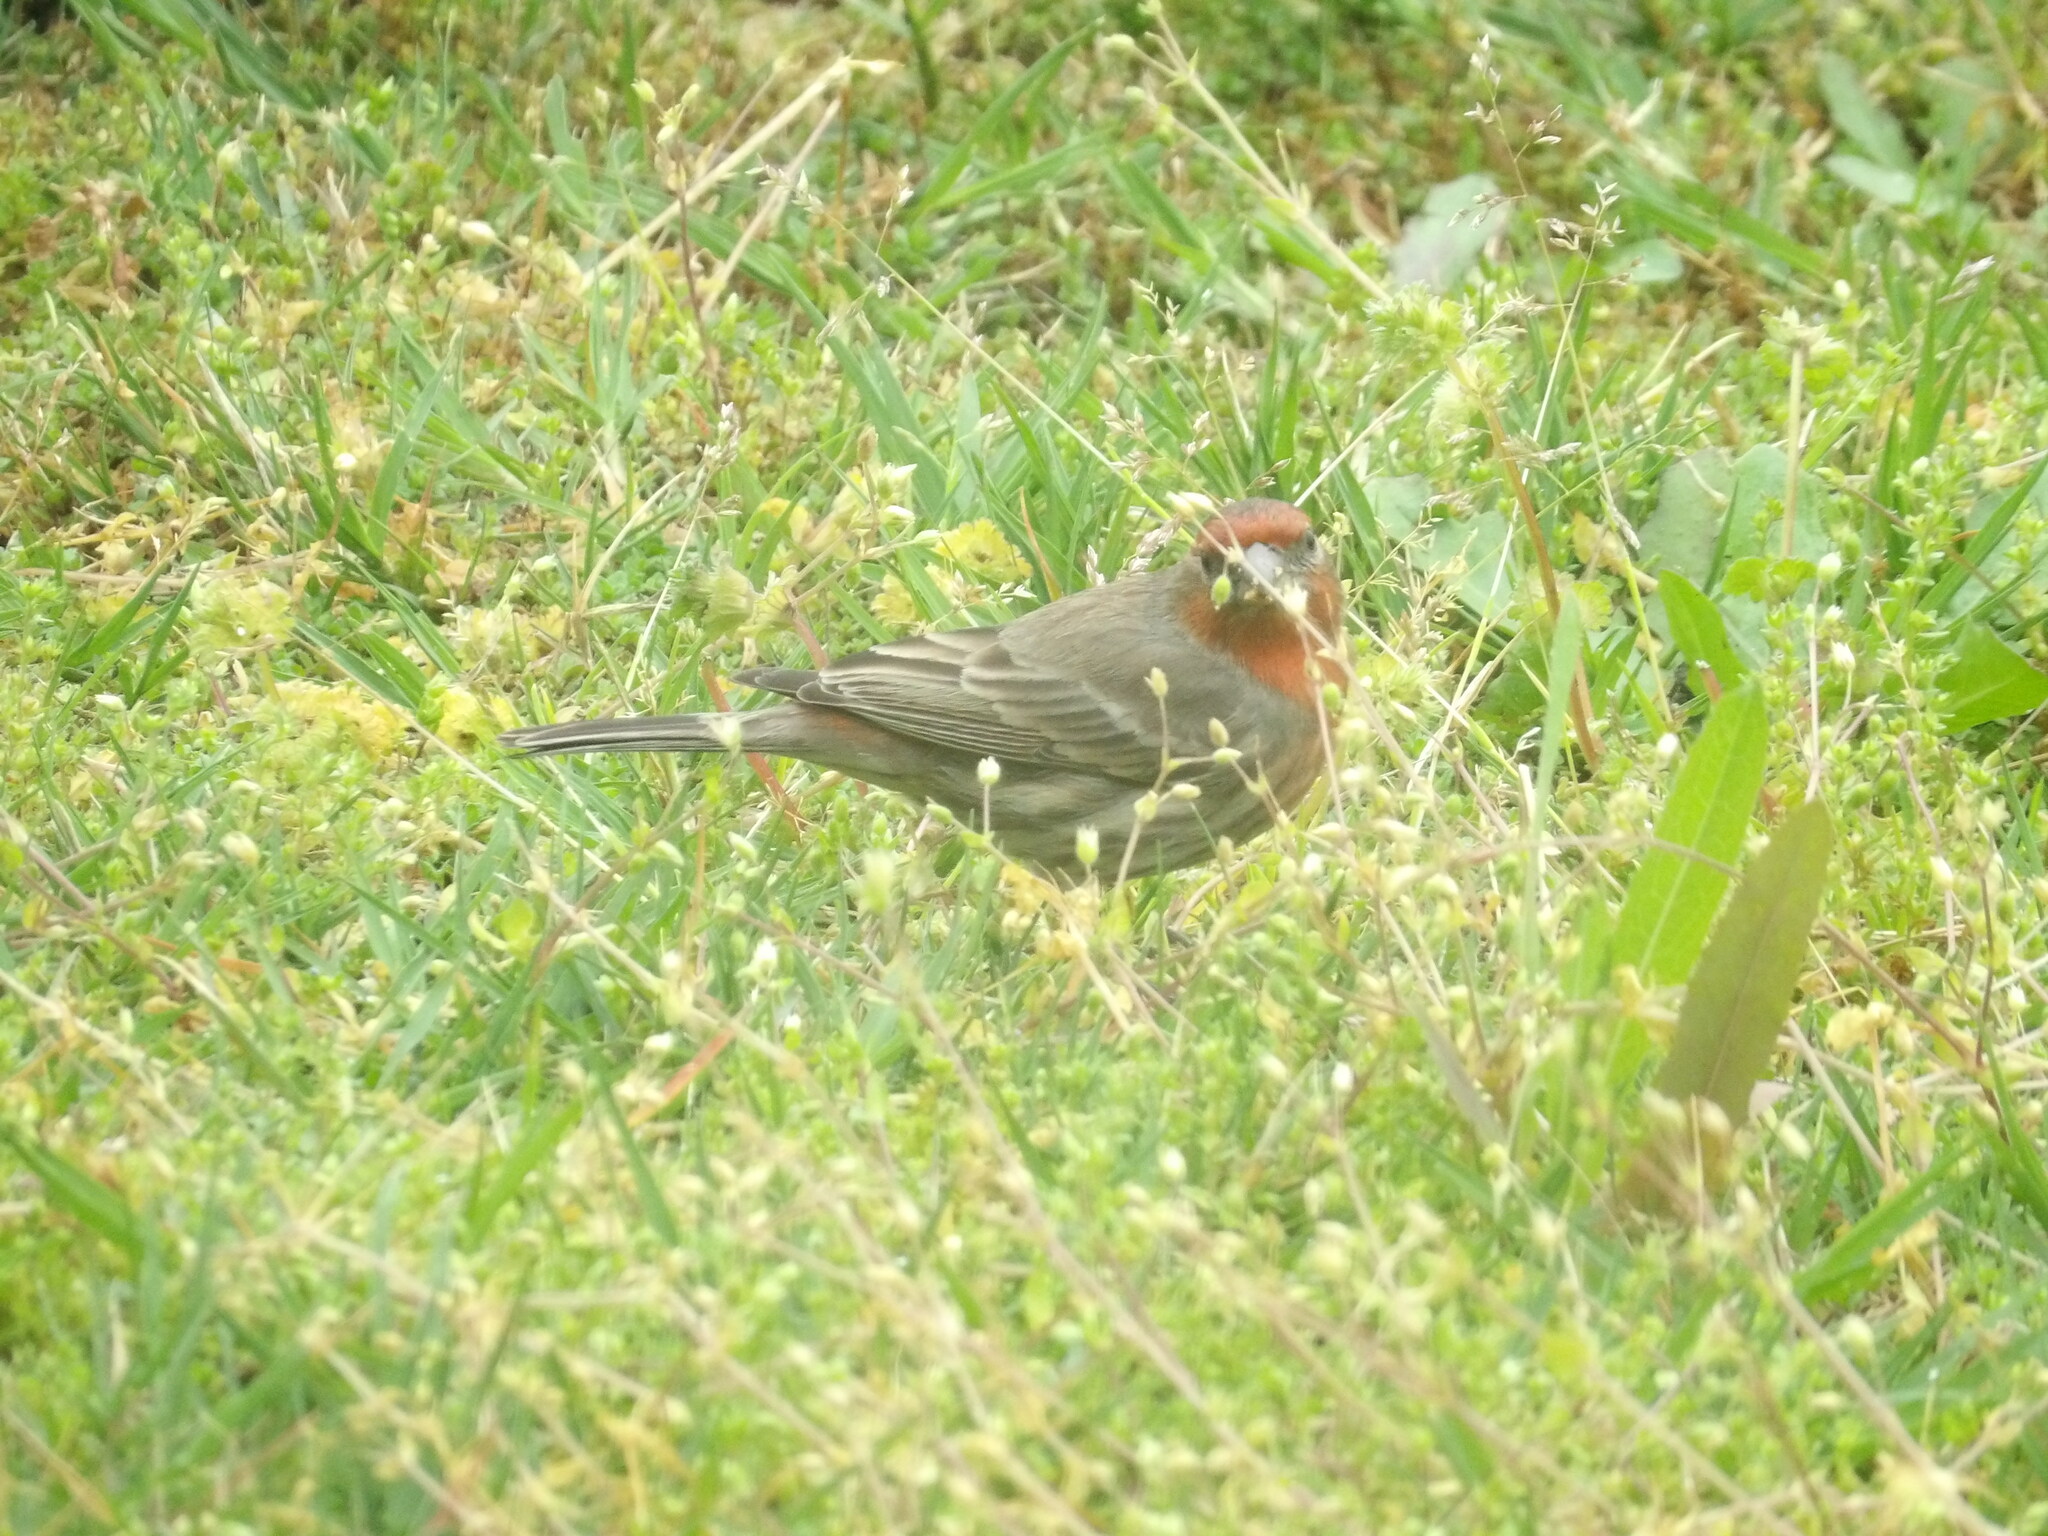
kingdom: Animalia
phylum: Chordata
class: Aves
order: Passeriformes
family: Fringillidae
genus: Haemorhous
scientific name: Haemorhous mexicanus
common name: House finch
